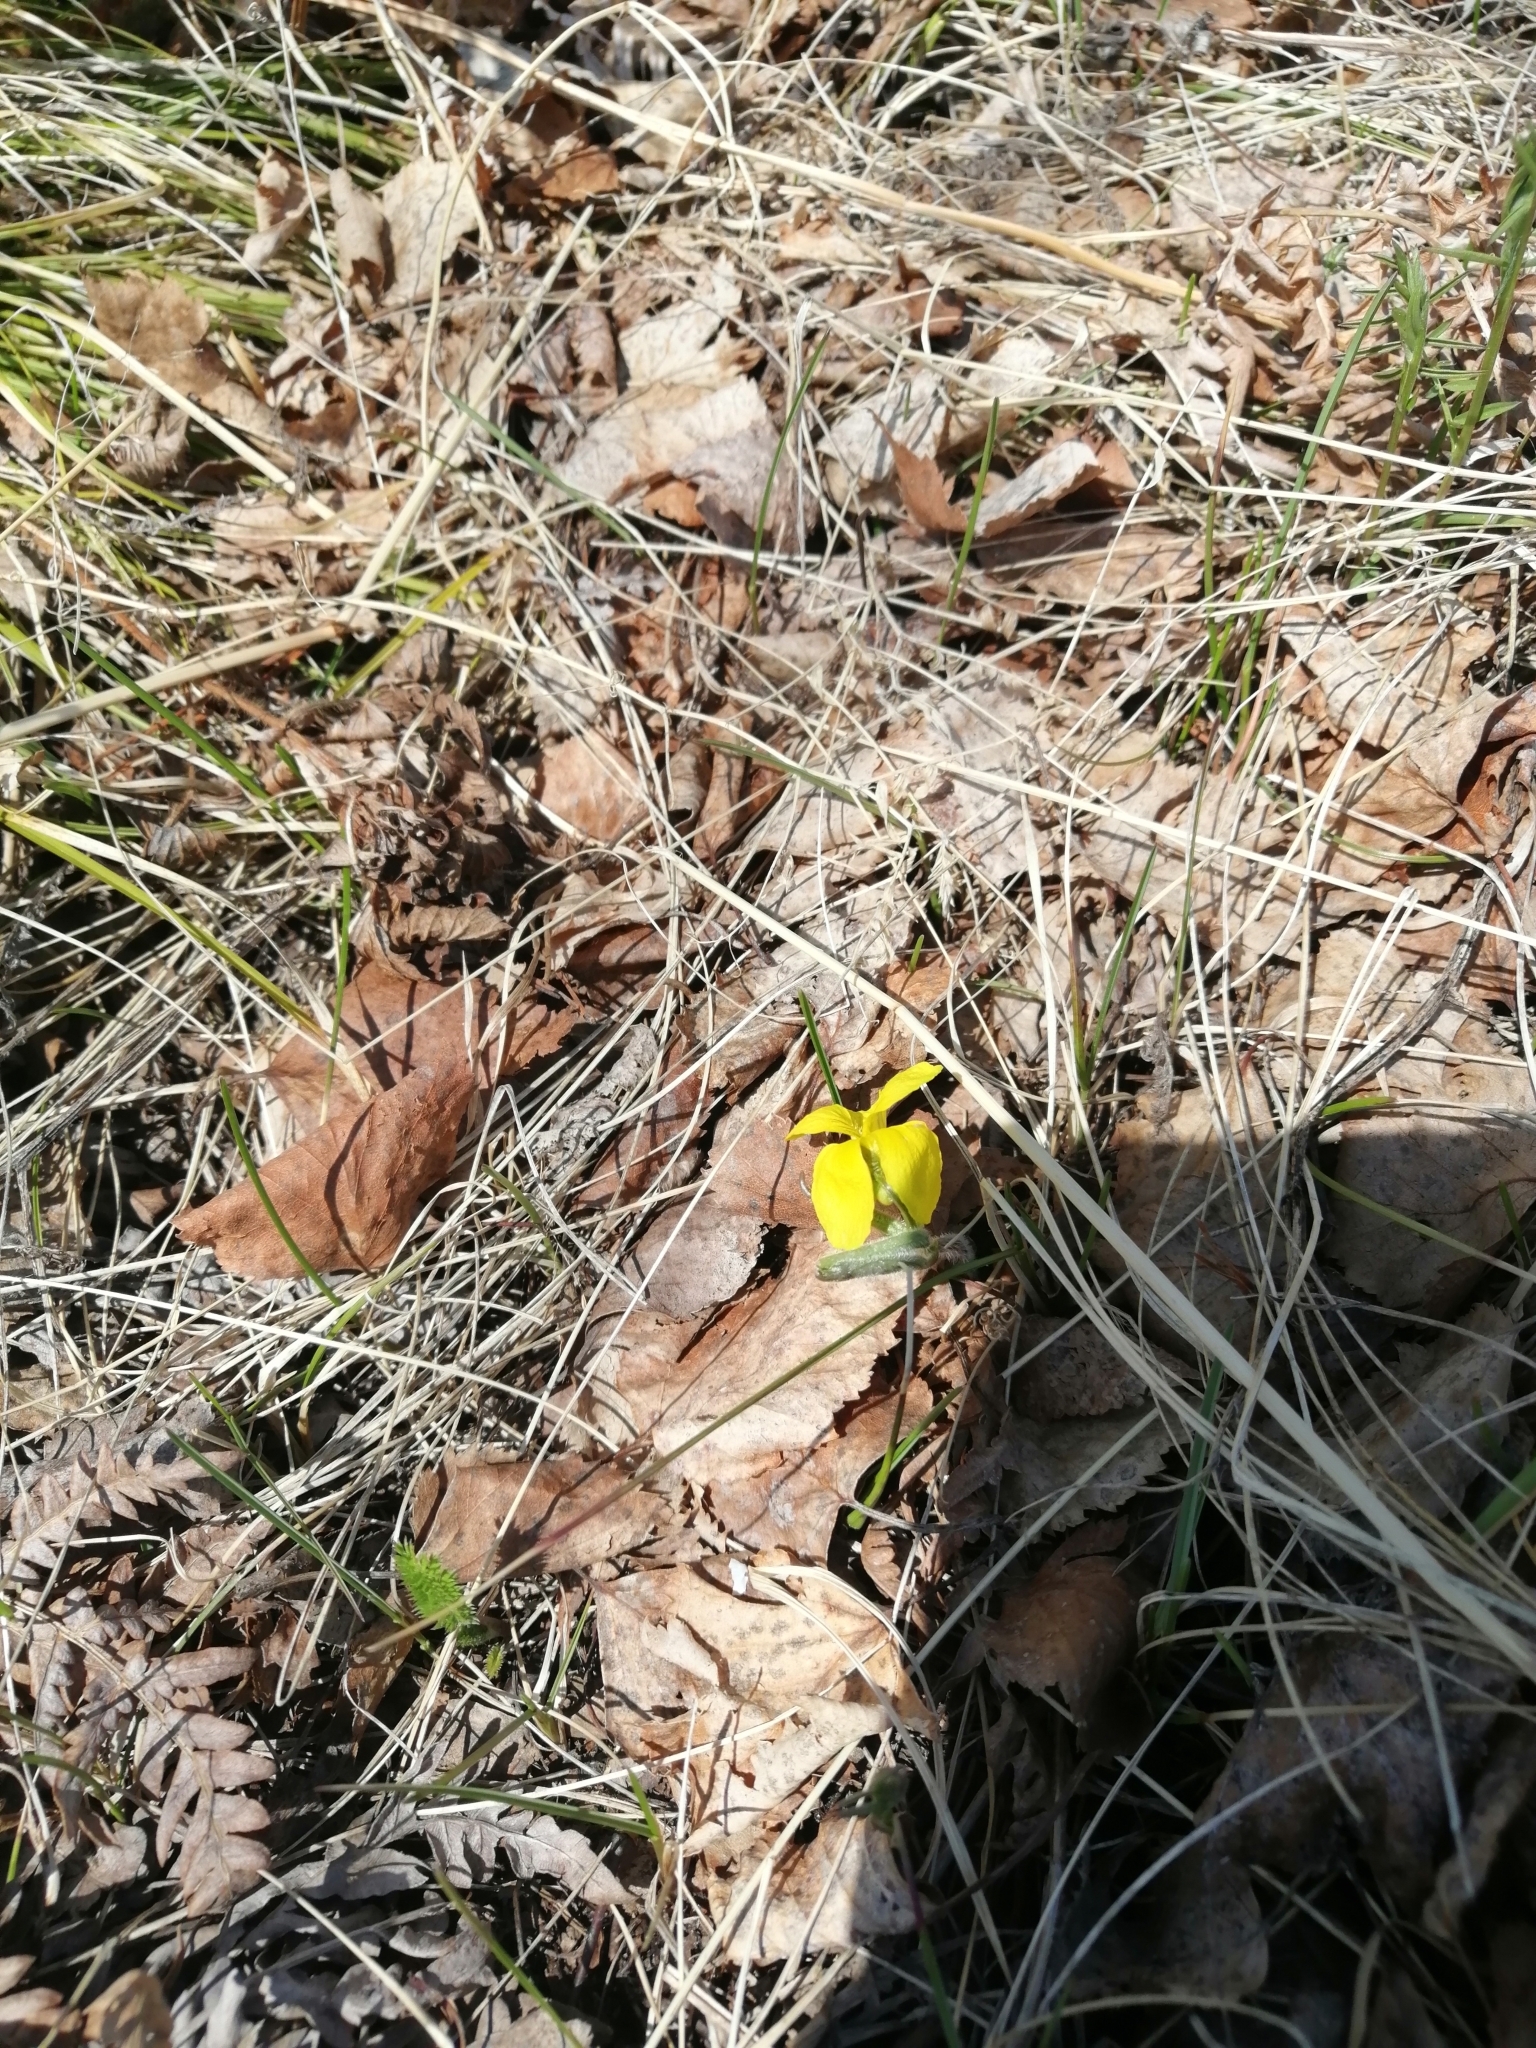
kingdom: Plantae
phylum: Tracheophyta
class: Magnoliopsida
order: Malpighiales
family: Violaceae
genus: Viola
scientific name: Viola uniflora
